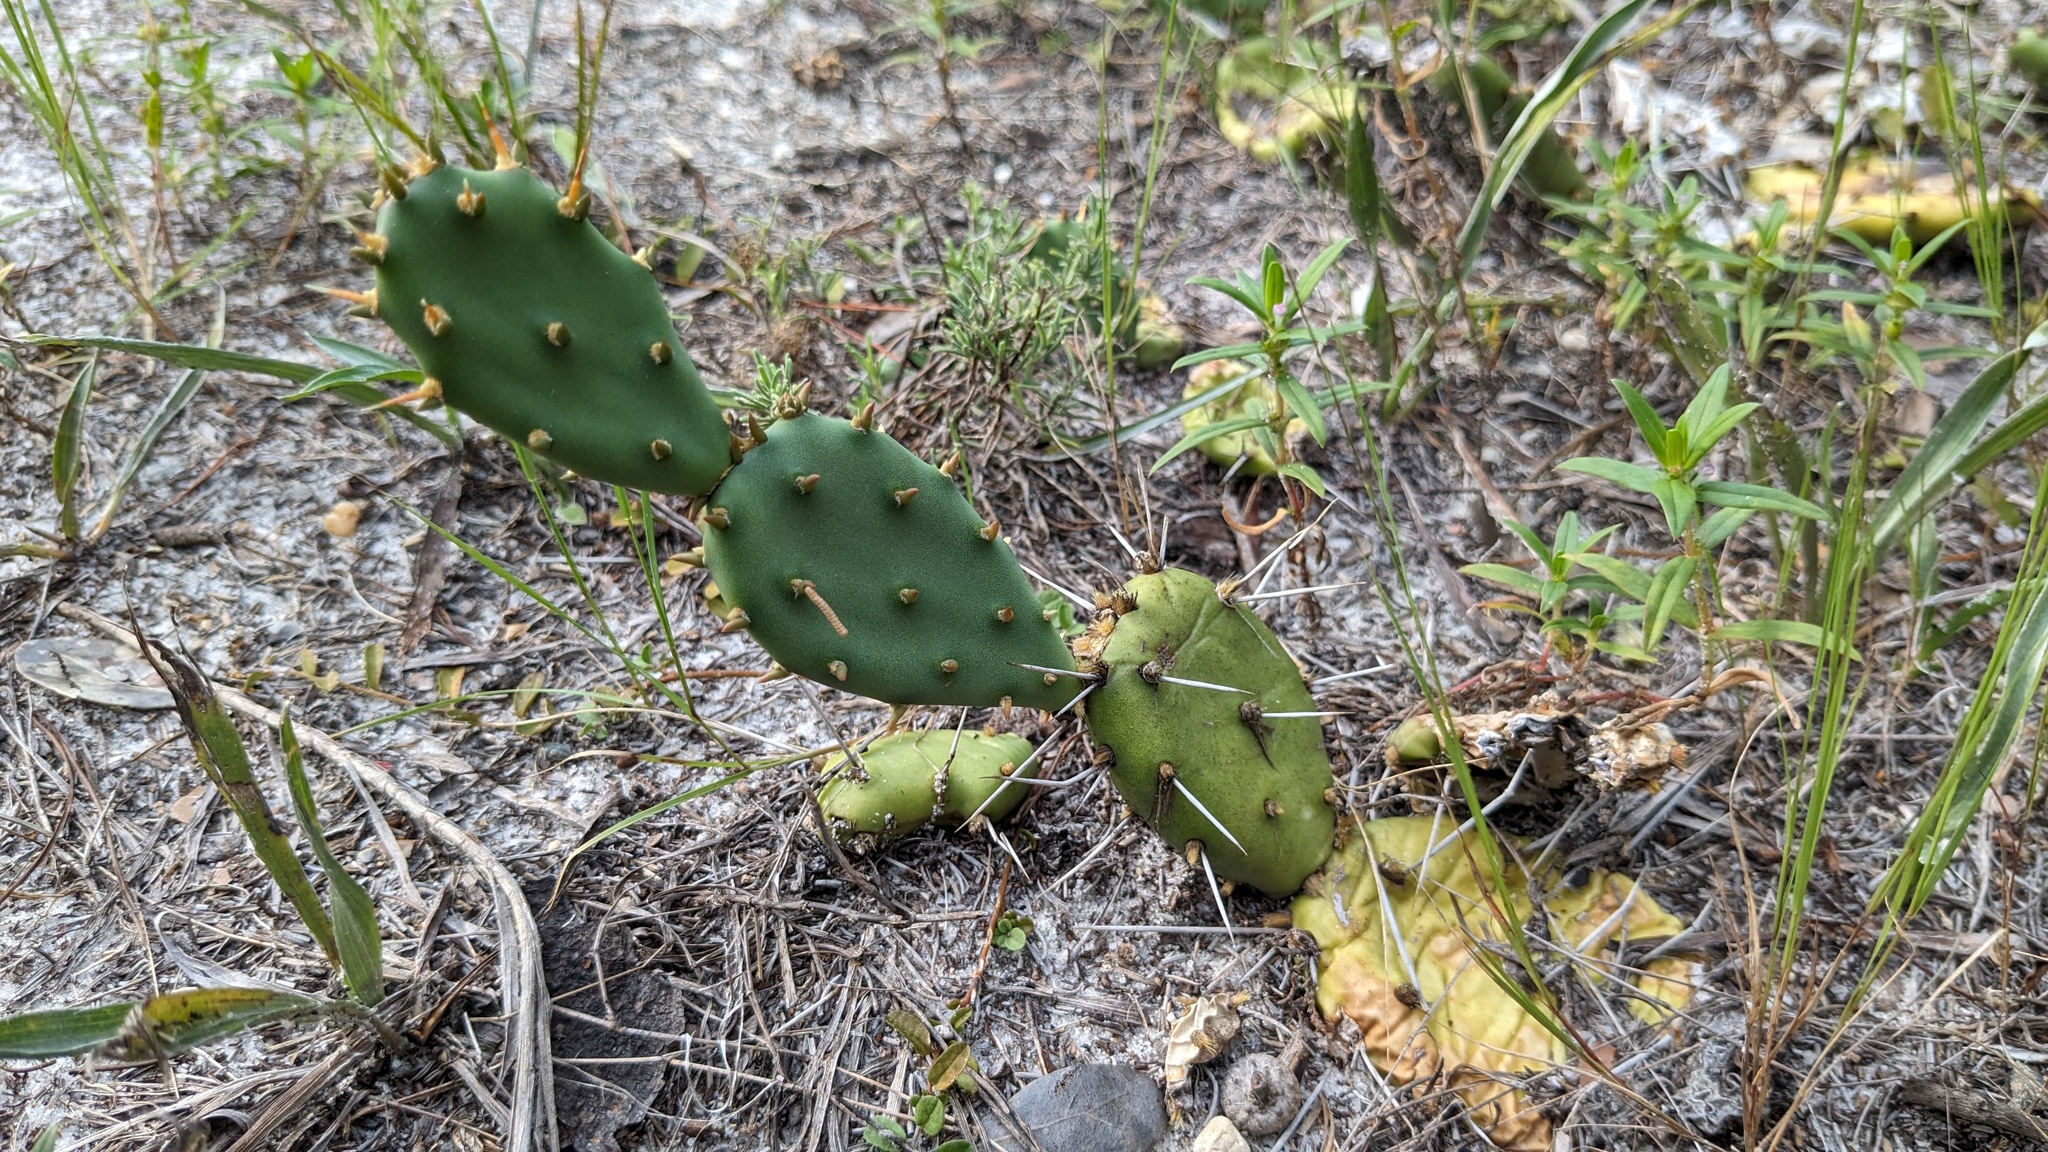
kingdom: Plantae
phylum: Tracheophyta
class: Magnoliopsida
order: Caryophyllales
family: Cactaceae
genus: Opuntia
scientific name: Opuntia mesacantha
